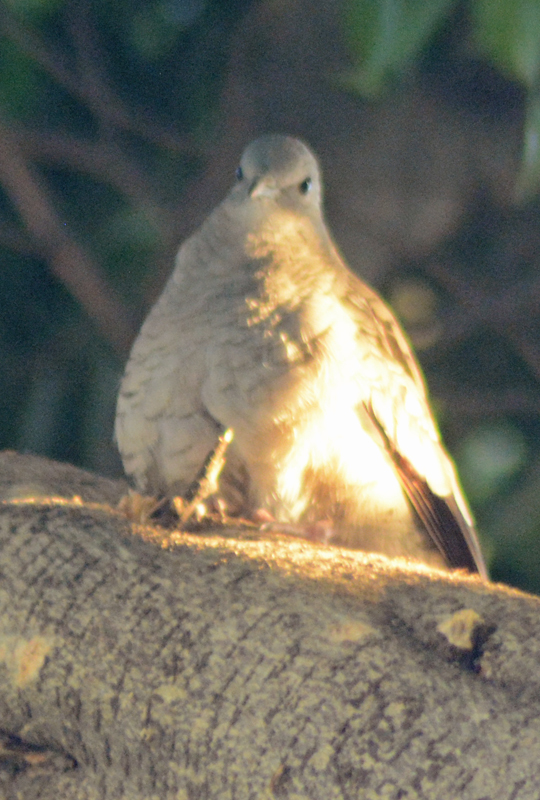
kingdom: Animalia
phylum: Chordata
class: Aves
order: Columbiformes
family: Columbidae
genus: Columbina
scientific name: Columbina inca
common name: Inca dove
